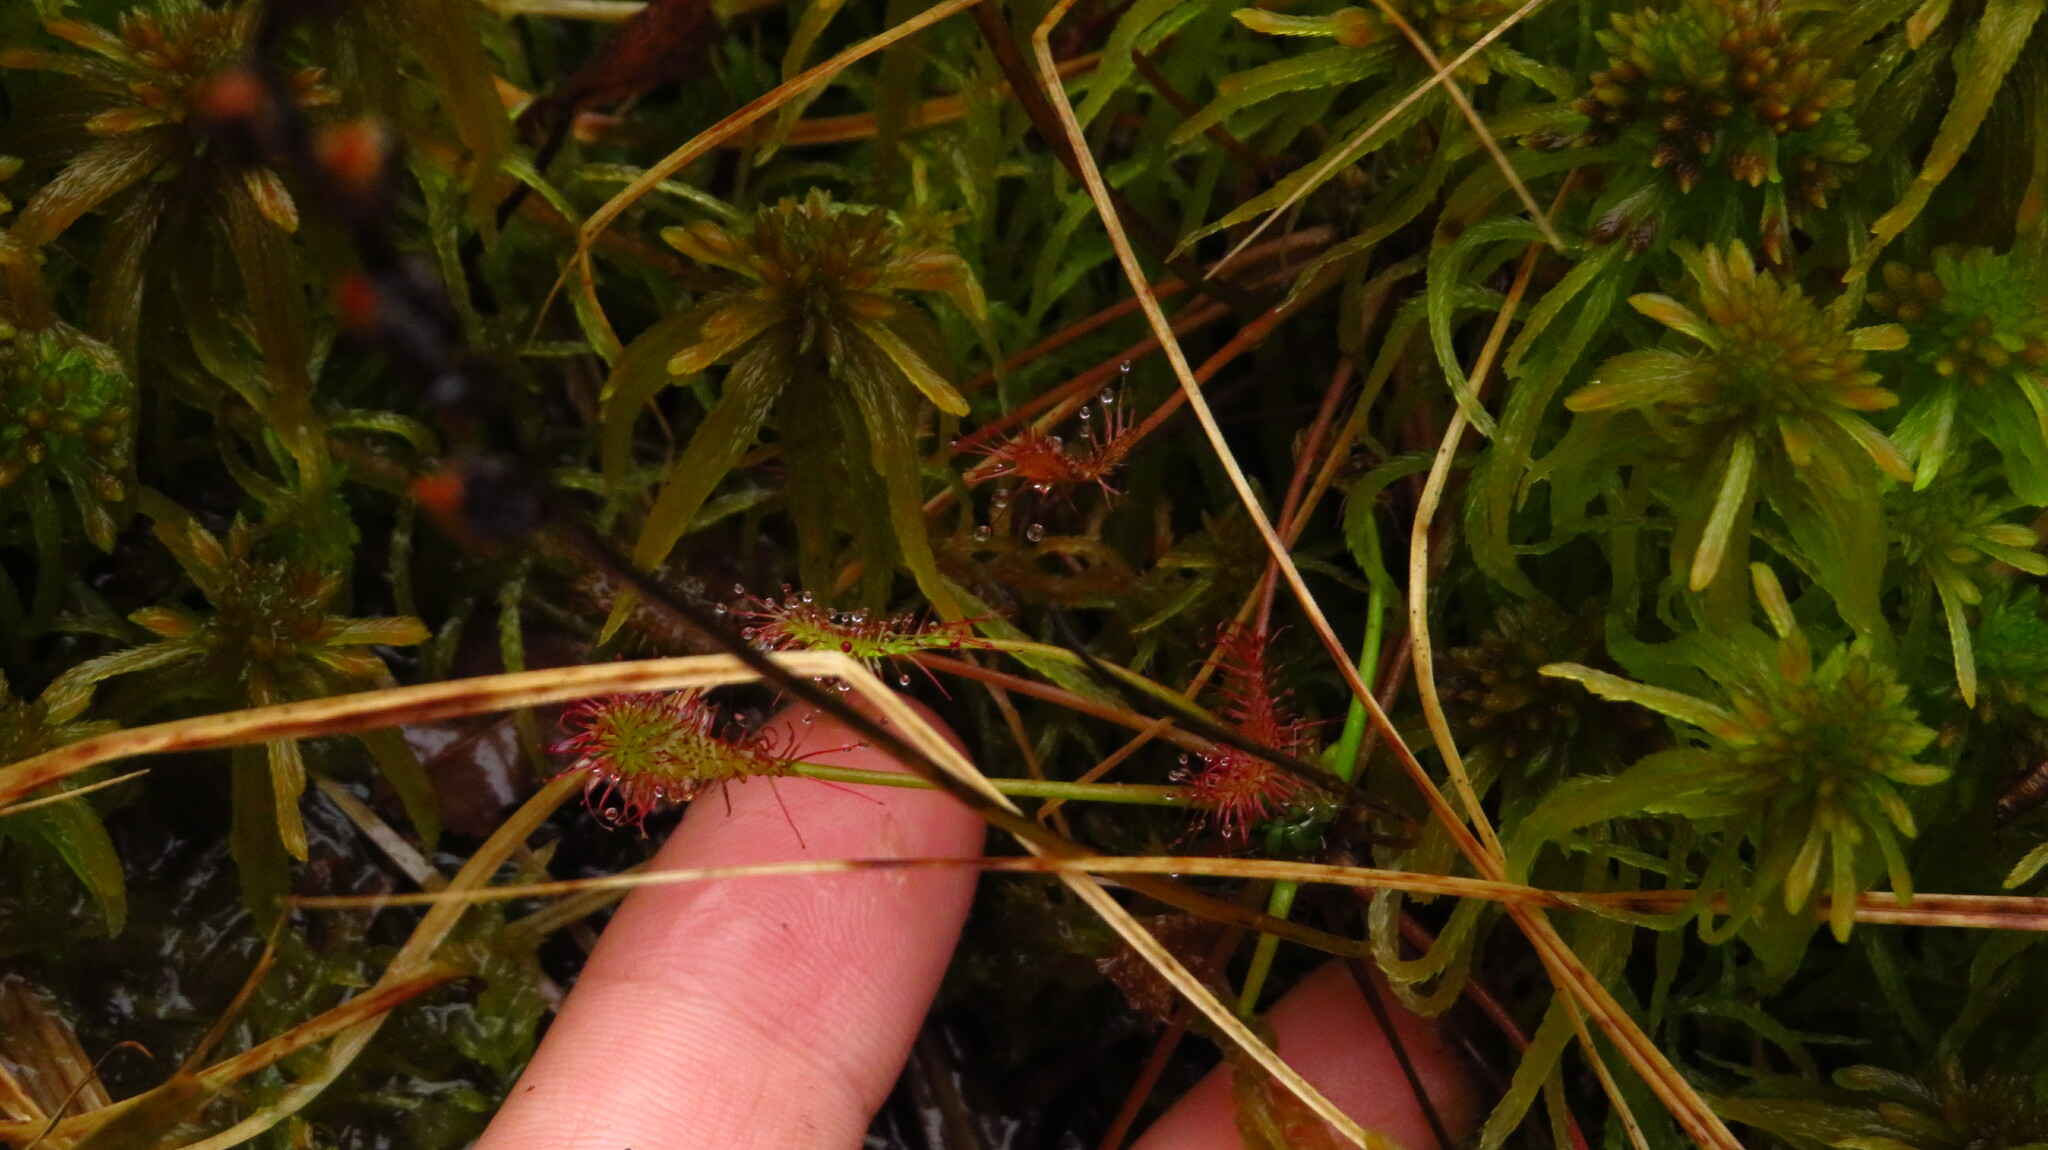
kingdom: Plantae
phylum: Tracheophyta
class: Magnoliopsida
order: Caryophyllales
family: Droseraceae
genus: Drosera
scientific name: Drosera intermedia
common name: Oblong-leaved sundew
